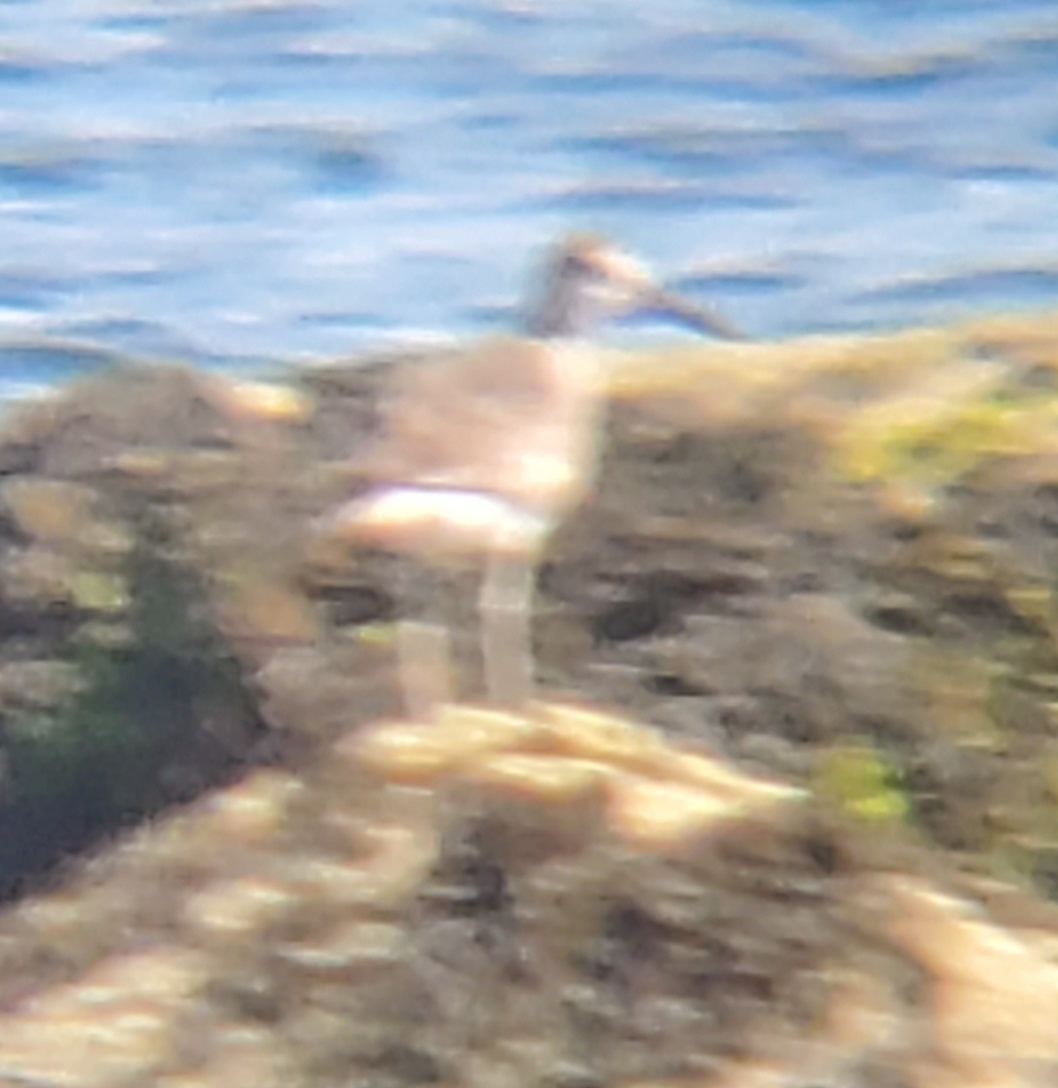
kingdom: Animalia
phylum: Chordata
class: Aves
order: Charadriiformes
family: Scolopacidae
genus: Tringa
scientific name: Tringa semipalmata
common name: Willet
